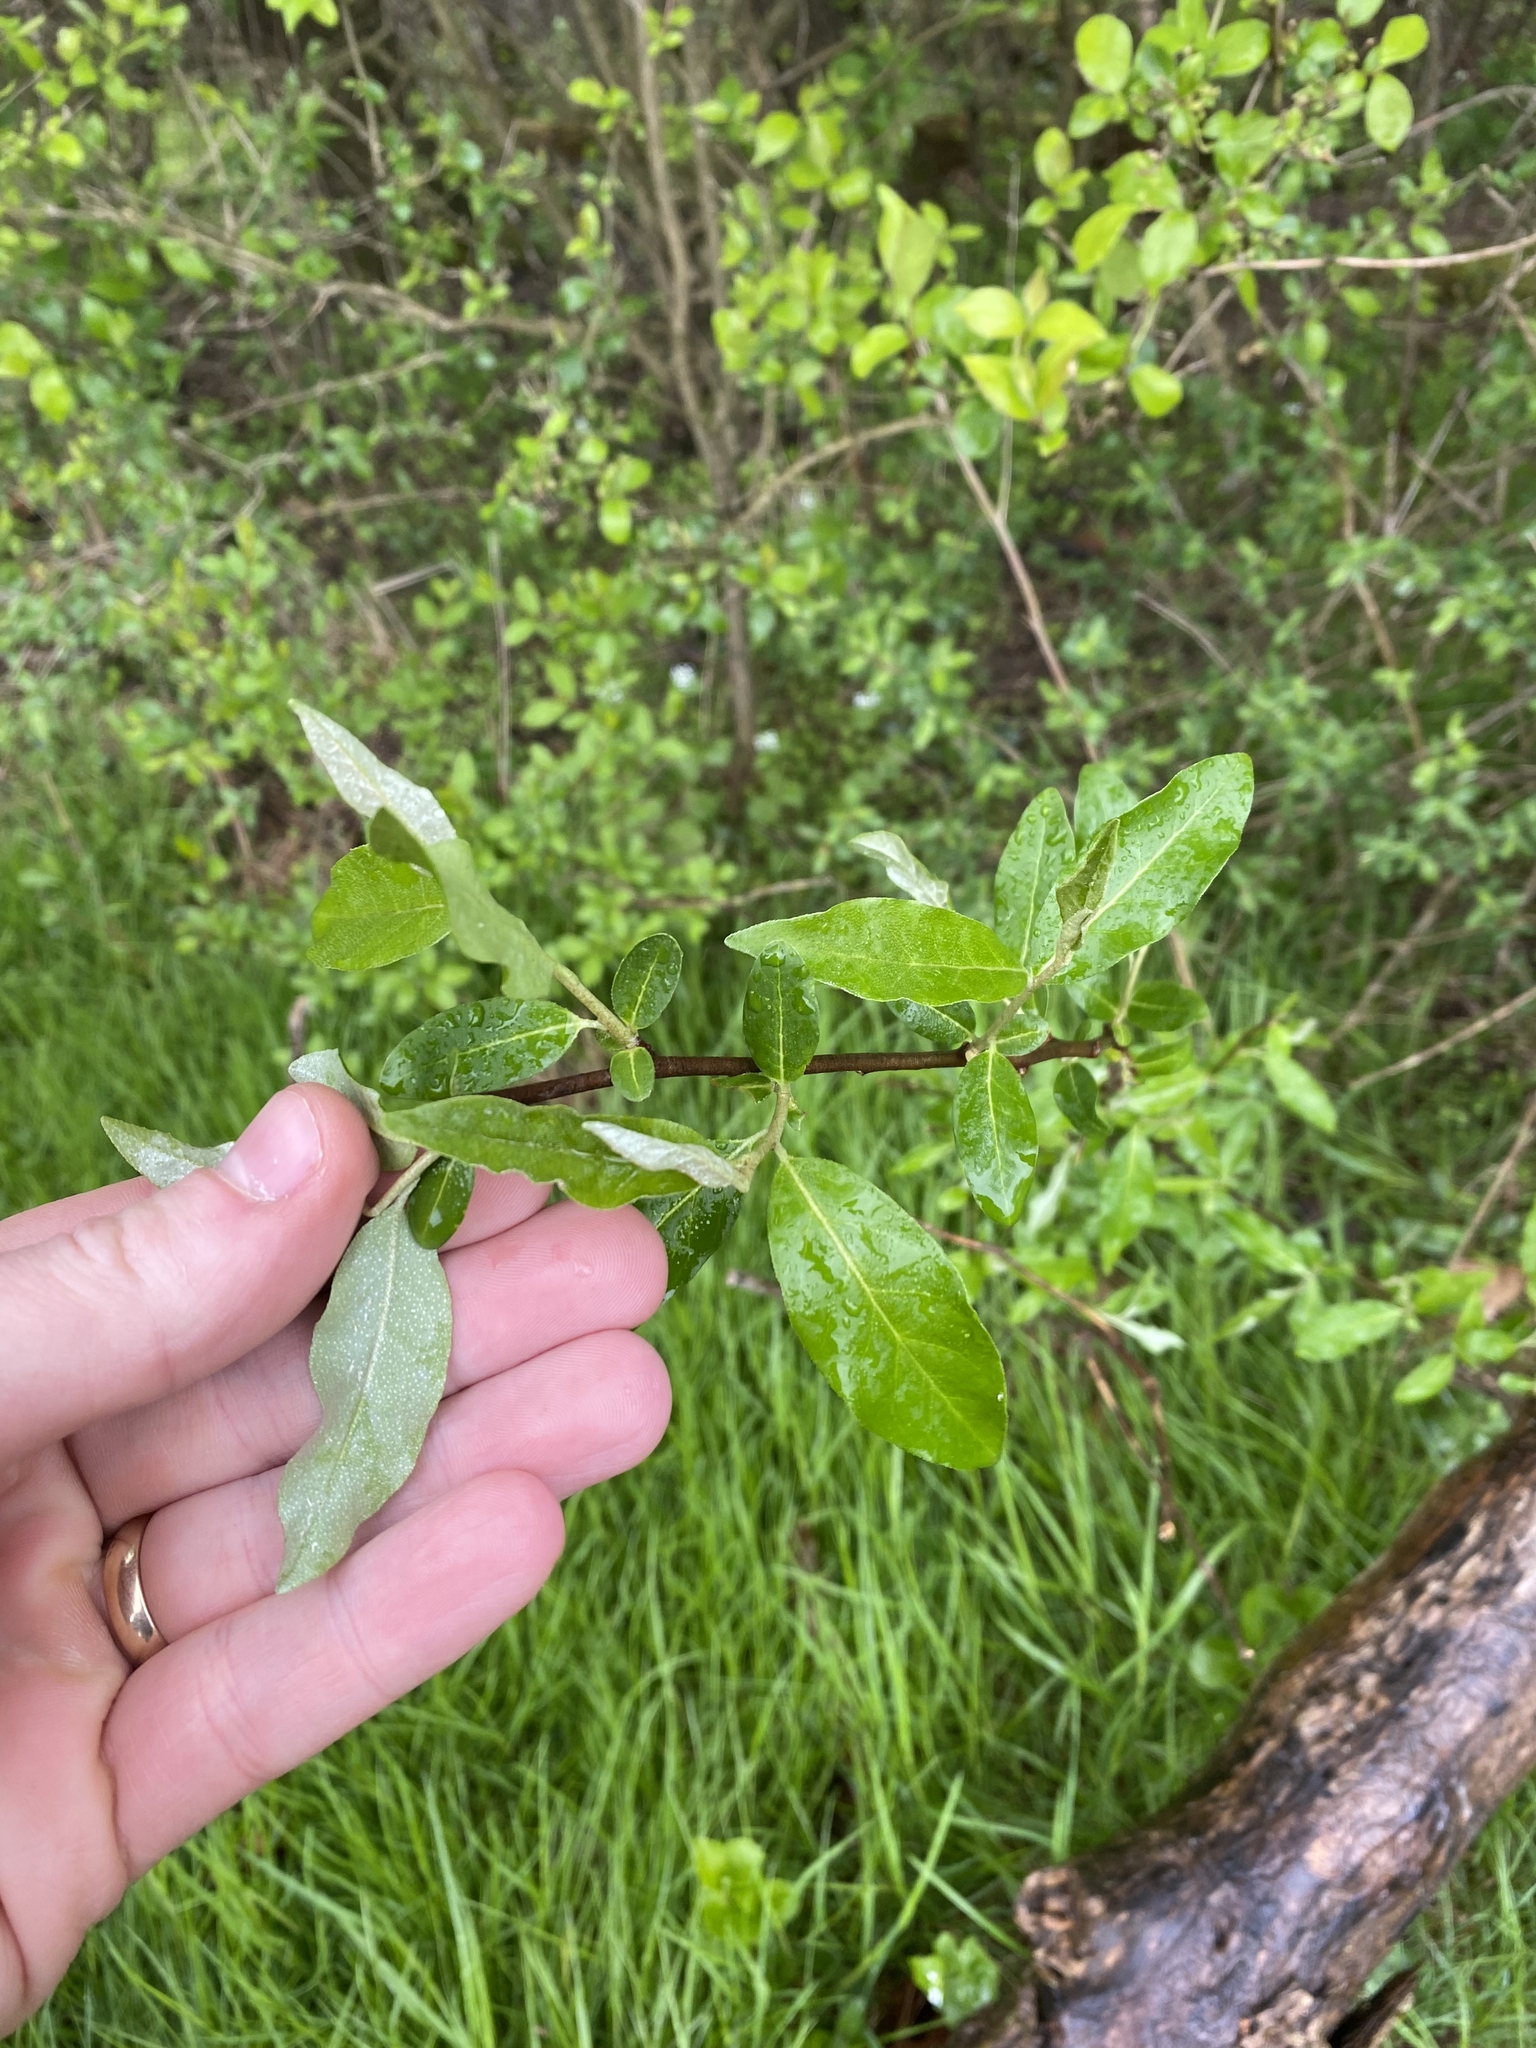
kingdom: Plantae
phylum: Tracheophyta
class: Magnoliopsida
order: Rosales
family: Elaeagnaceae
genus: Elaeagnus
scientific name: Elaeagnus umbellata
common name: Autumn olive
